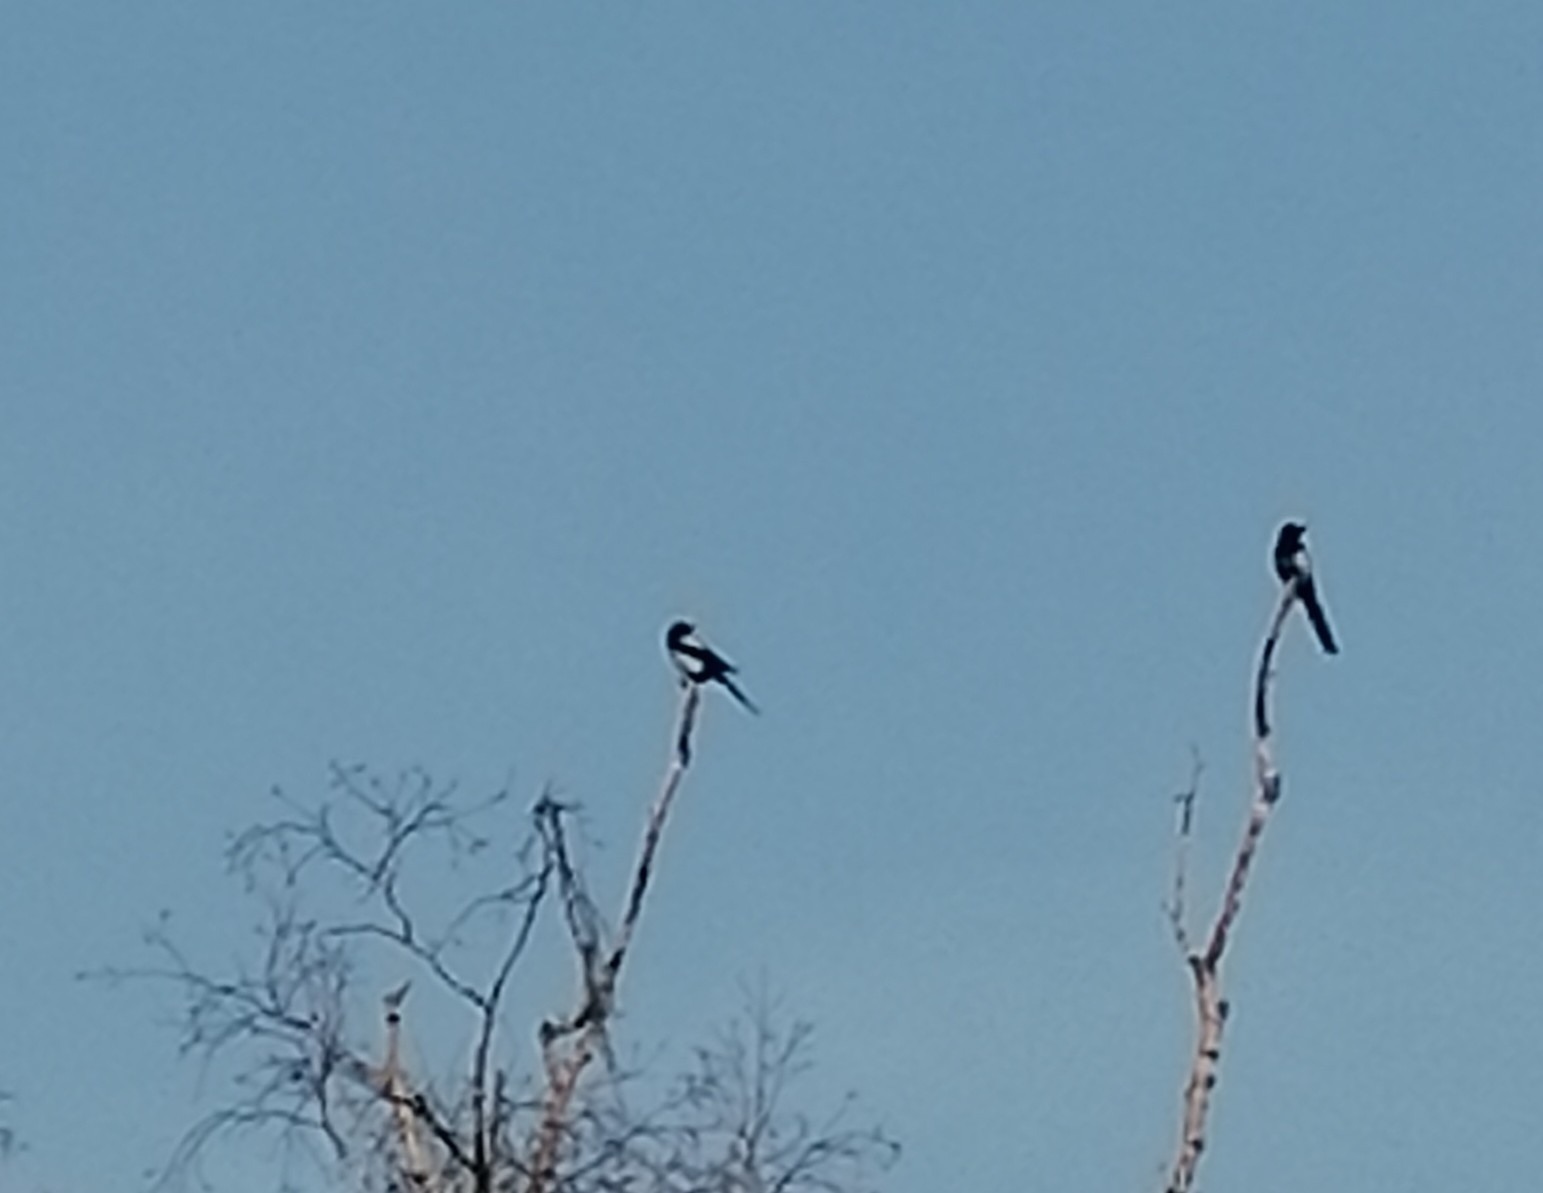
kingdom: Animalia
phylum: Chordata
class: Aves
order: Passeriformes
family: Corvidae
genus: Pica
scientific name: Pica pica
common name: Eurasian magpie
